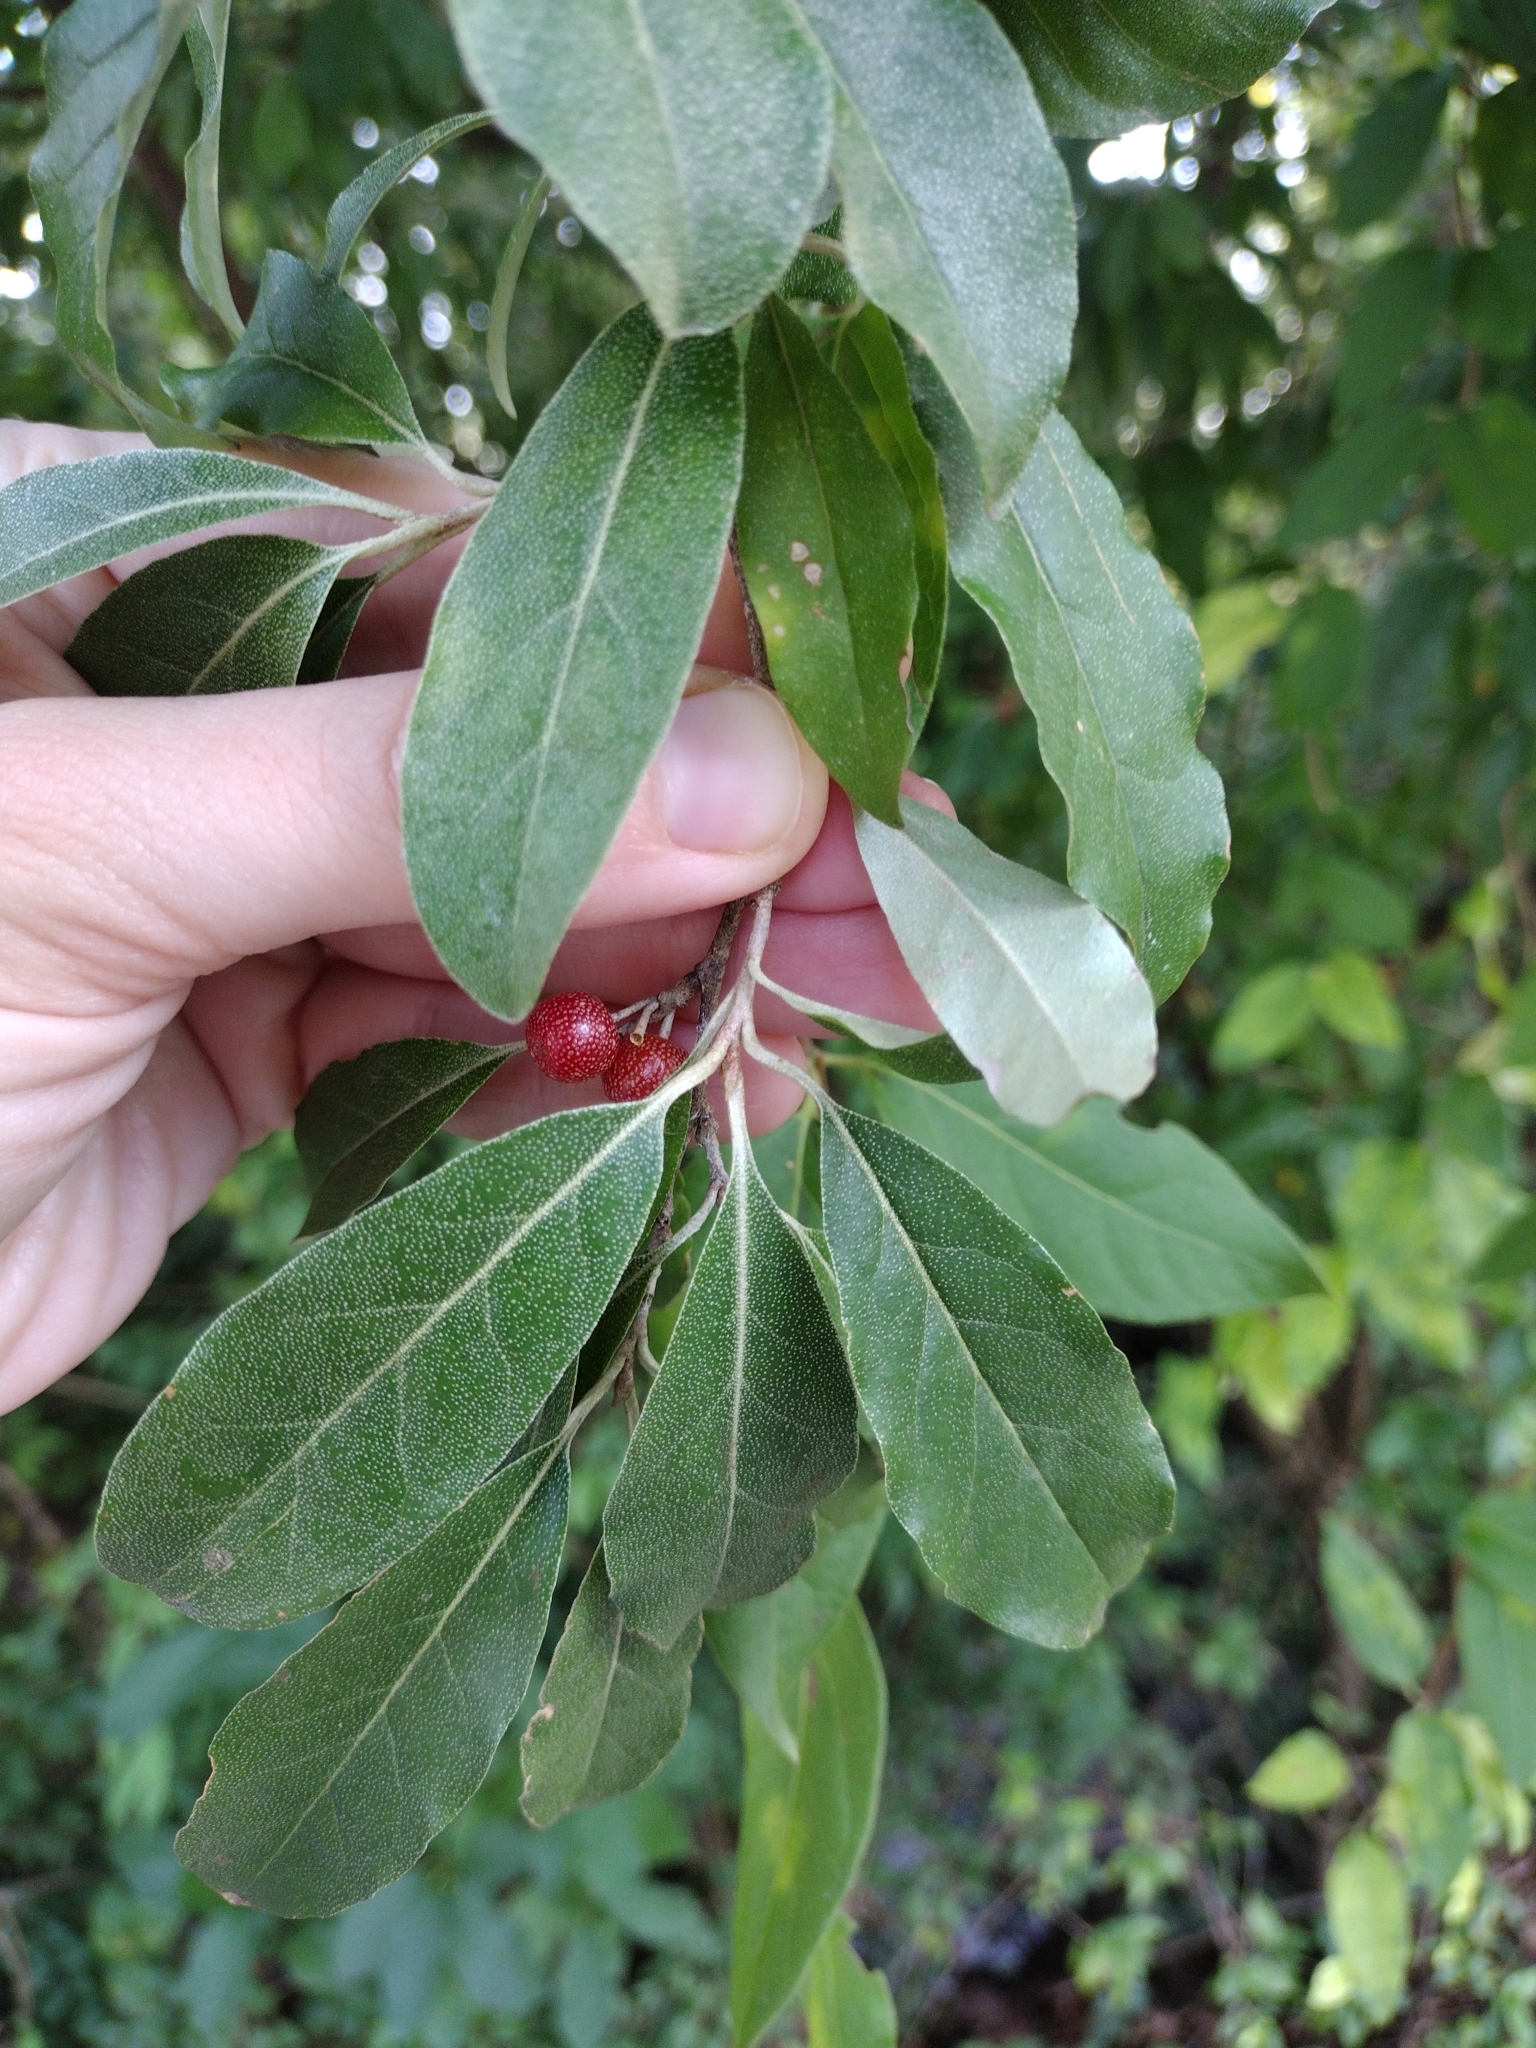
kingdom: Plantae
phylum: Tracheophyta
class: Magnoliopsida
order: Rosales
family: Elaeagnaceae
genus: Elaeagnus
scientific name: Elaeagnus umbellata
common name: Autumn olive
